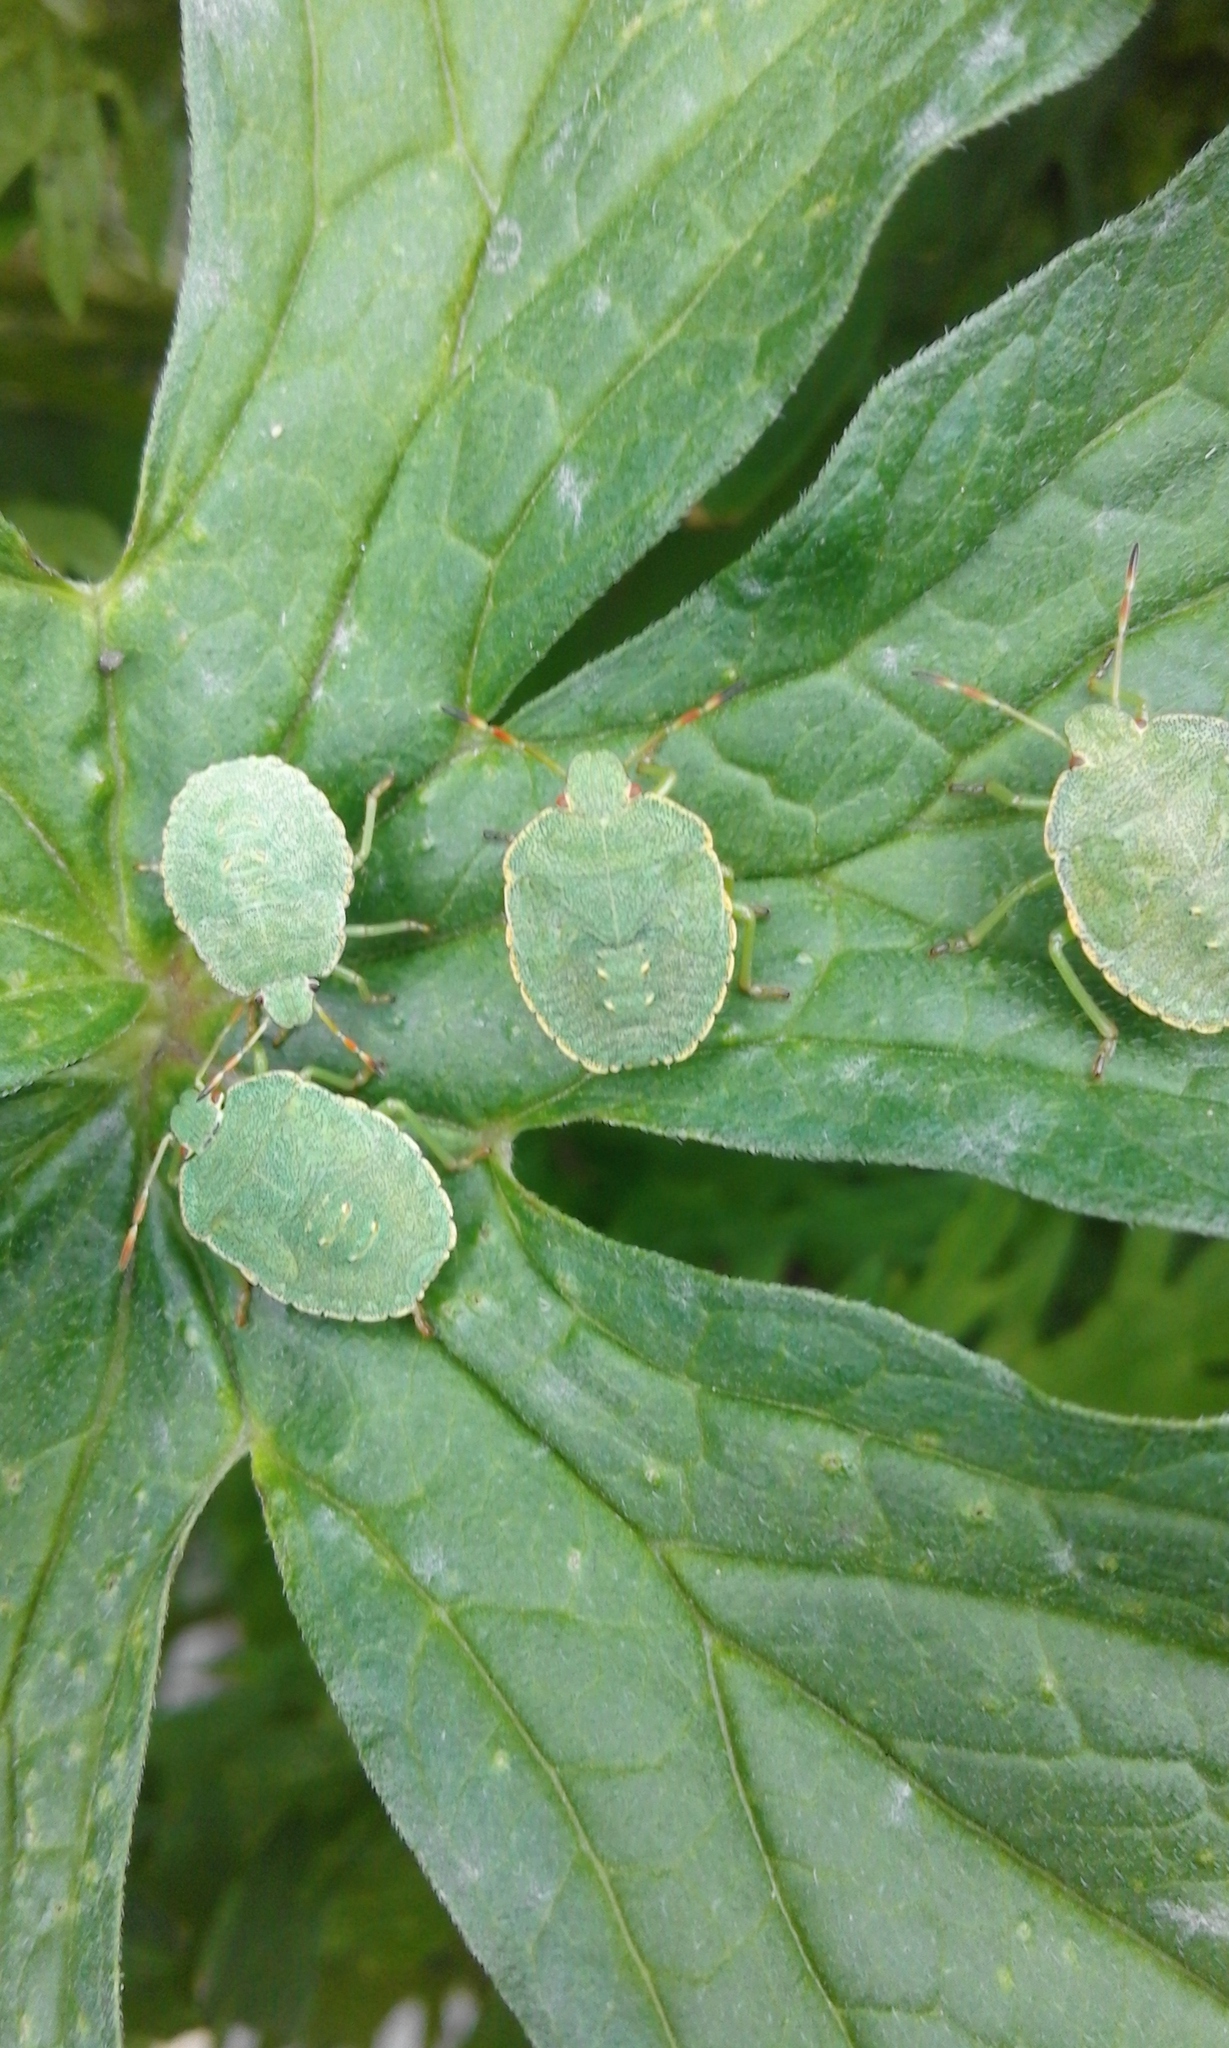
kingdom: Animalia
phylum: Arthropoda
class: Insecta
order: Hemiptera
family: Pentatomidae
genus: Palomena
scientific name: Palomena prasina
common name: Green shieldbug
